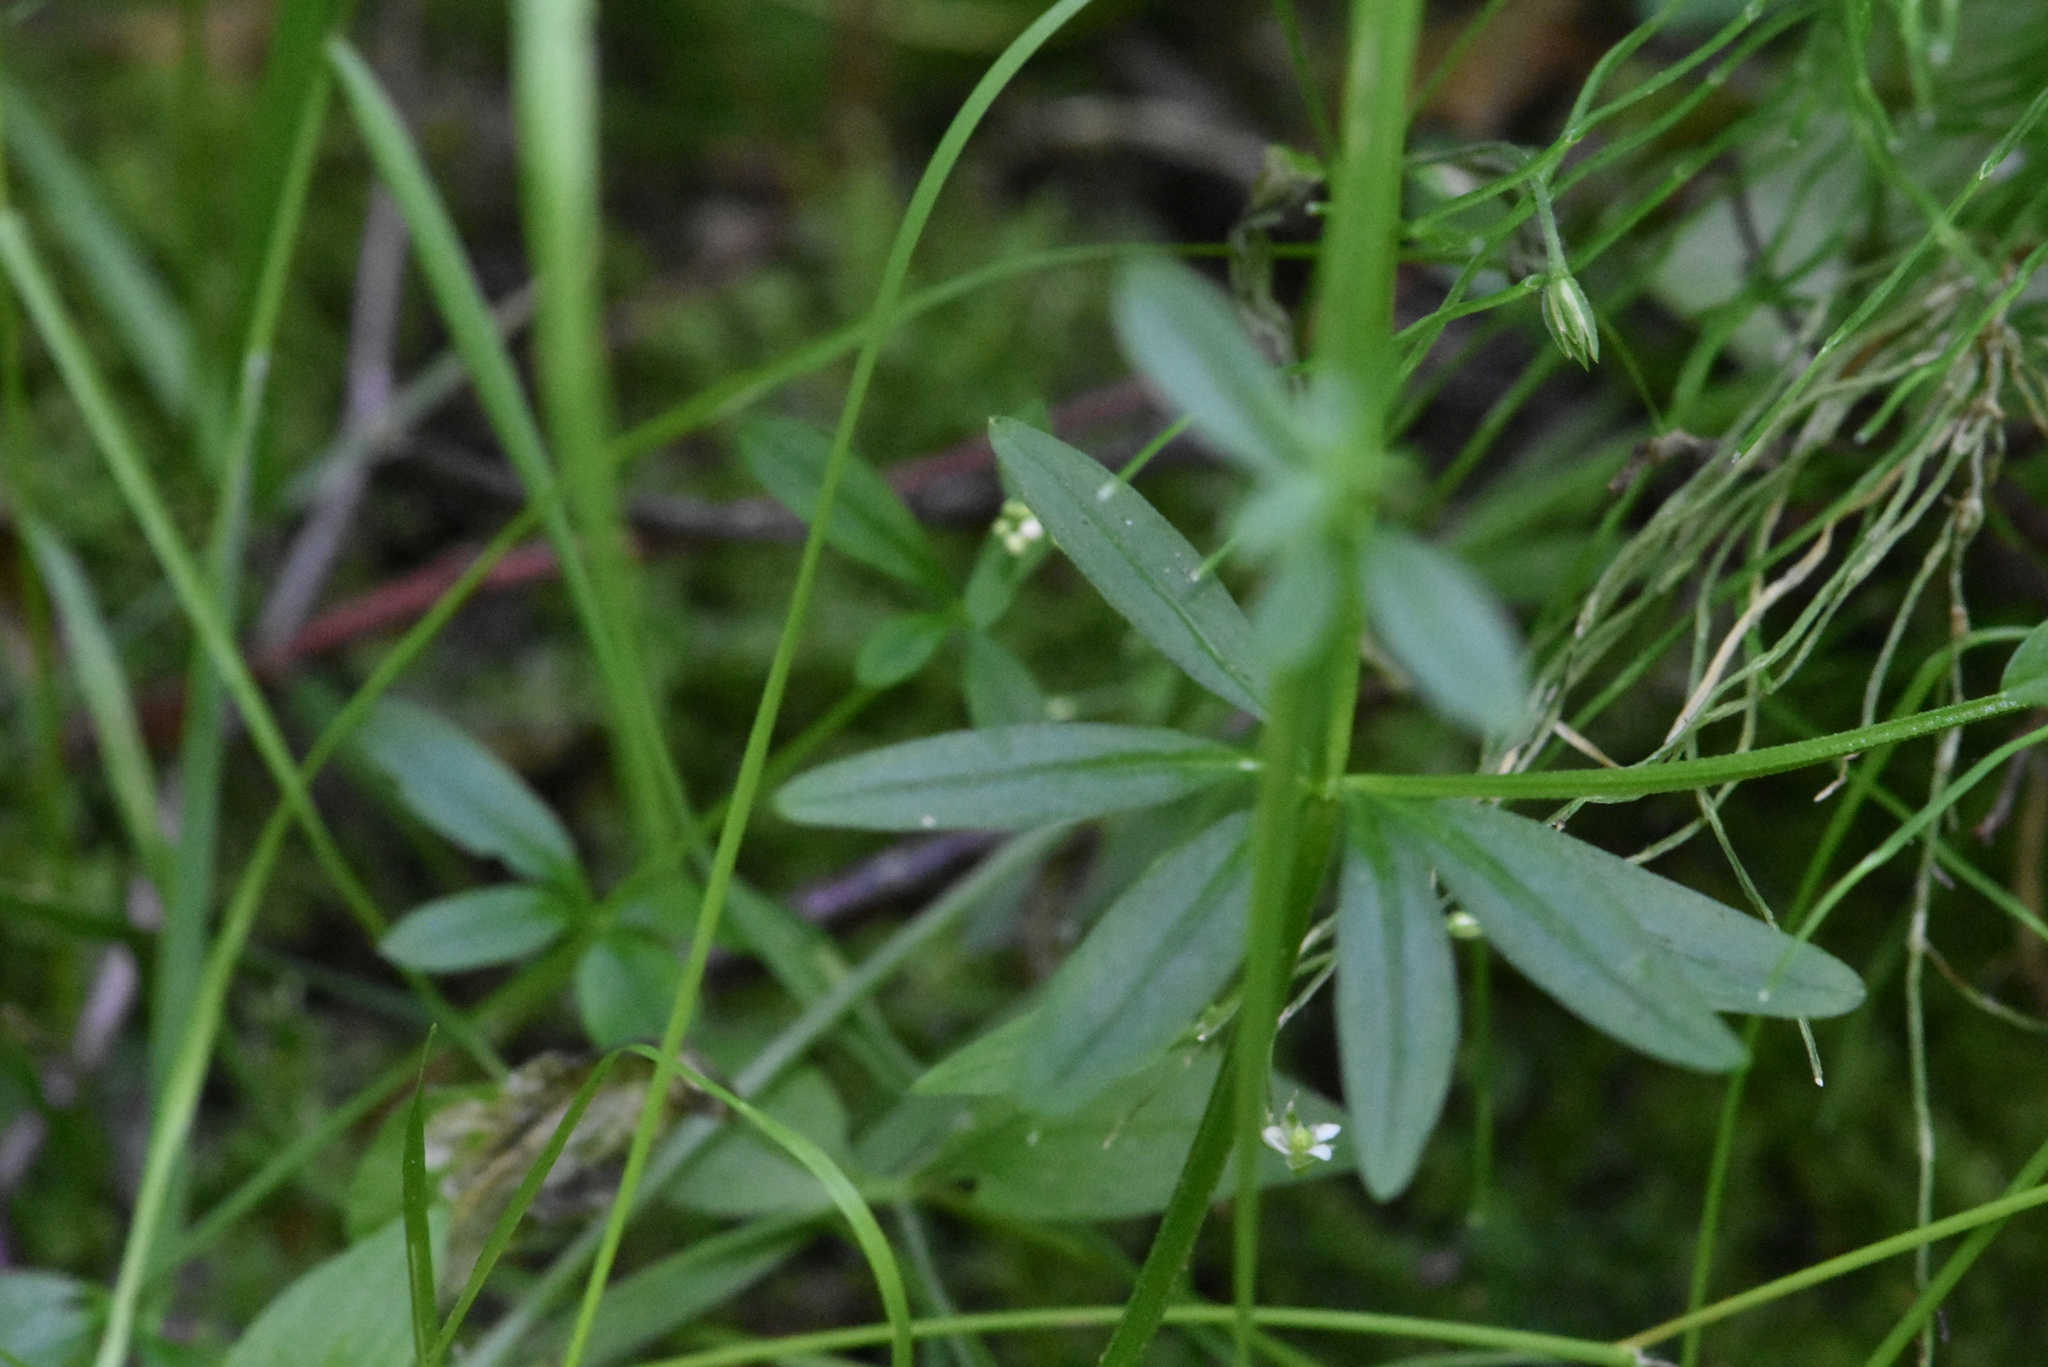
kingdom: Plantae
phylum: Tracheophyta
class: Magnoliopsida
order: Gentianales
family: Rubiaceae
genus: Galium
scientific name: Galium palustre
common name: Common marsh-bedstraw
